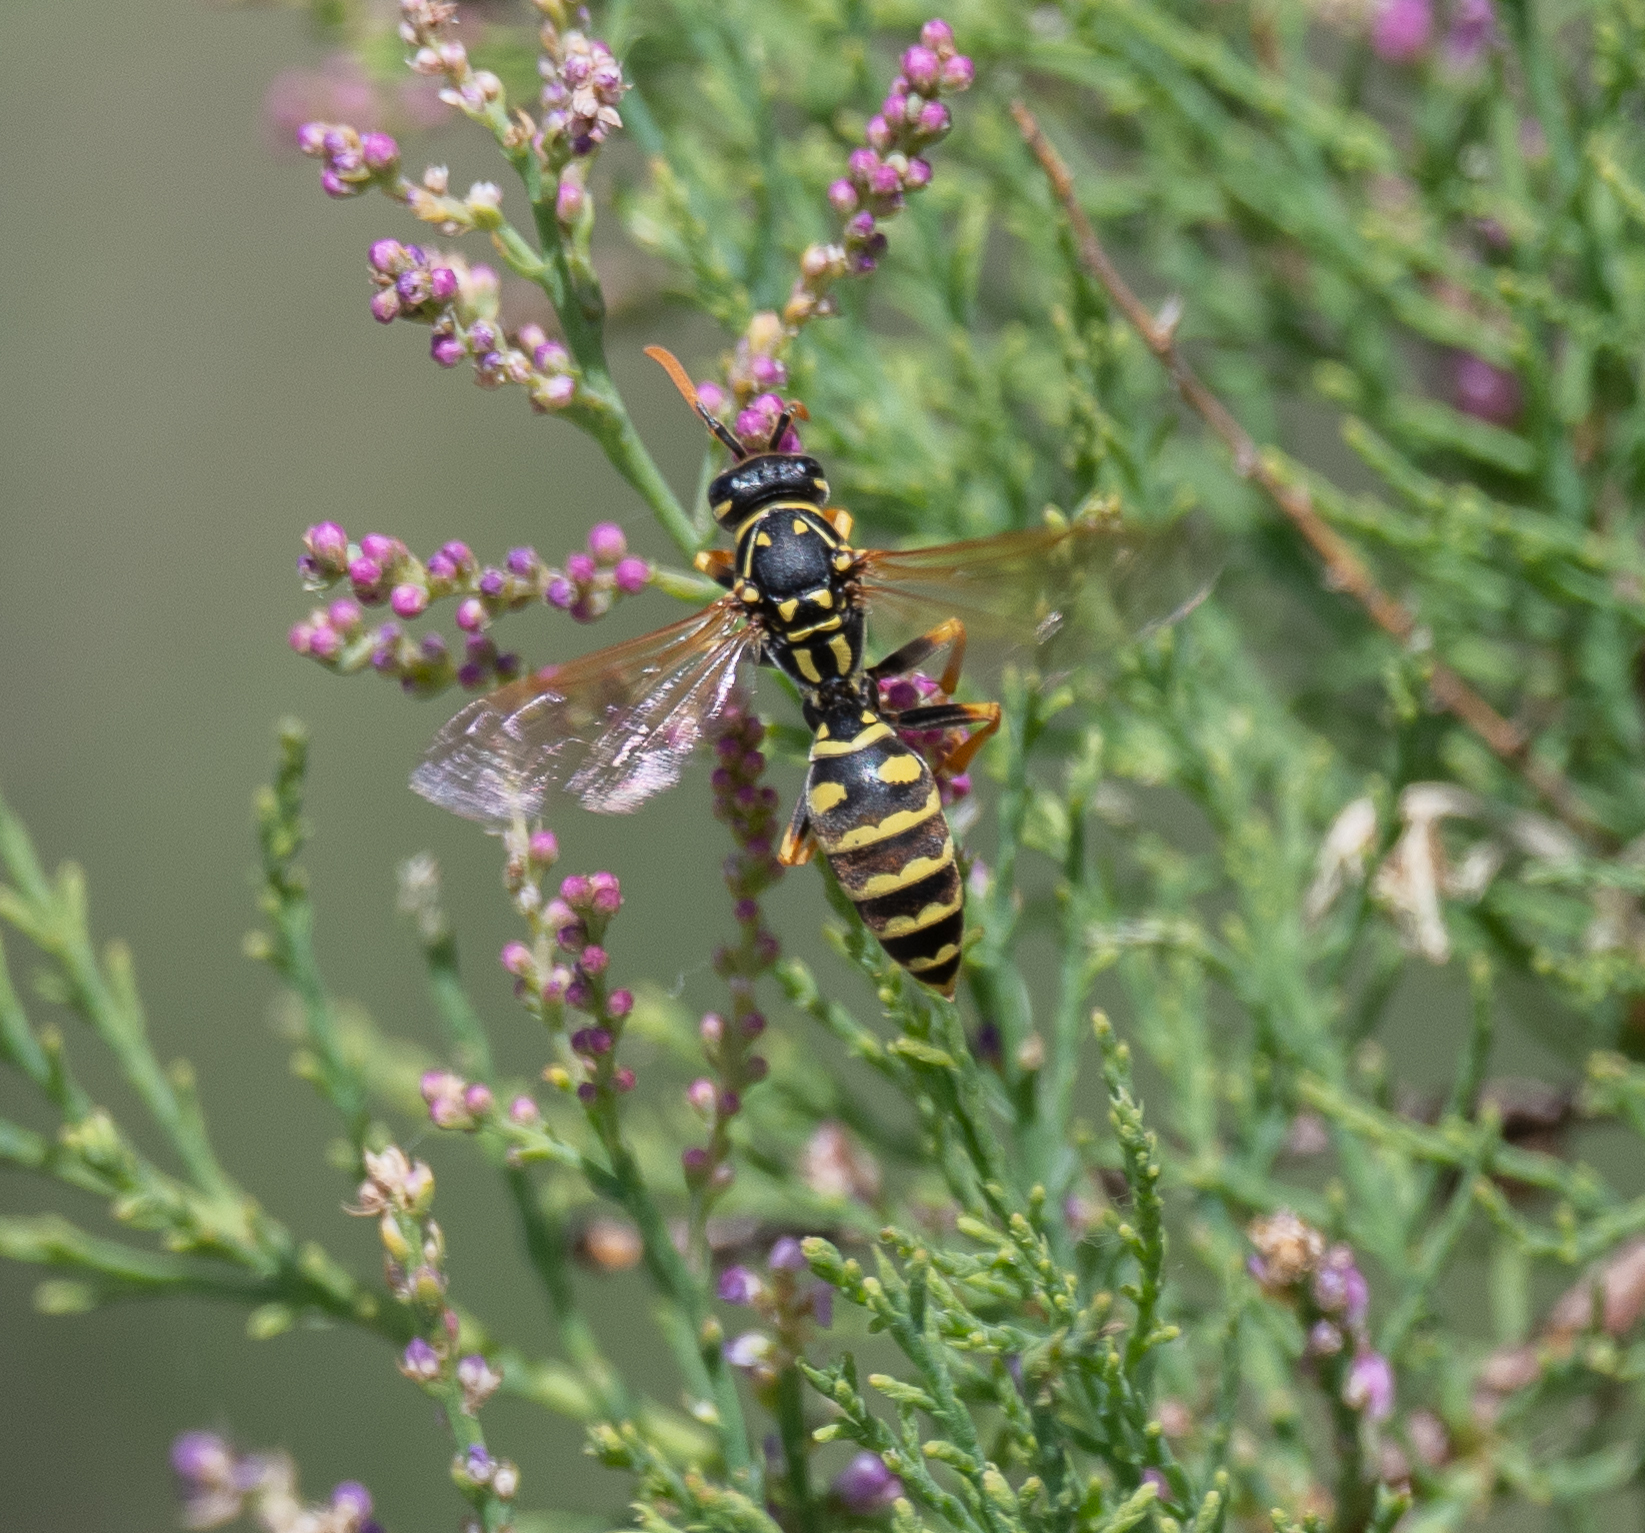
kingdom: Animalia
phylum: Arthropoda
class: Insecta
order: Hymenoptera
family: Eumenidae
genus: Polistes
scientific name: Polistes dominula
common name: Paper wasp
